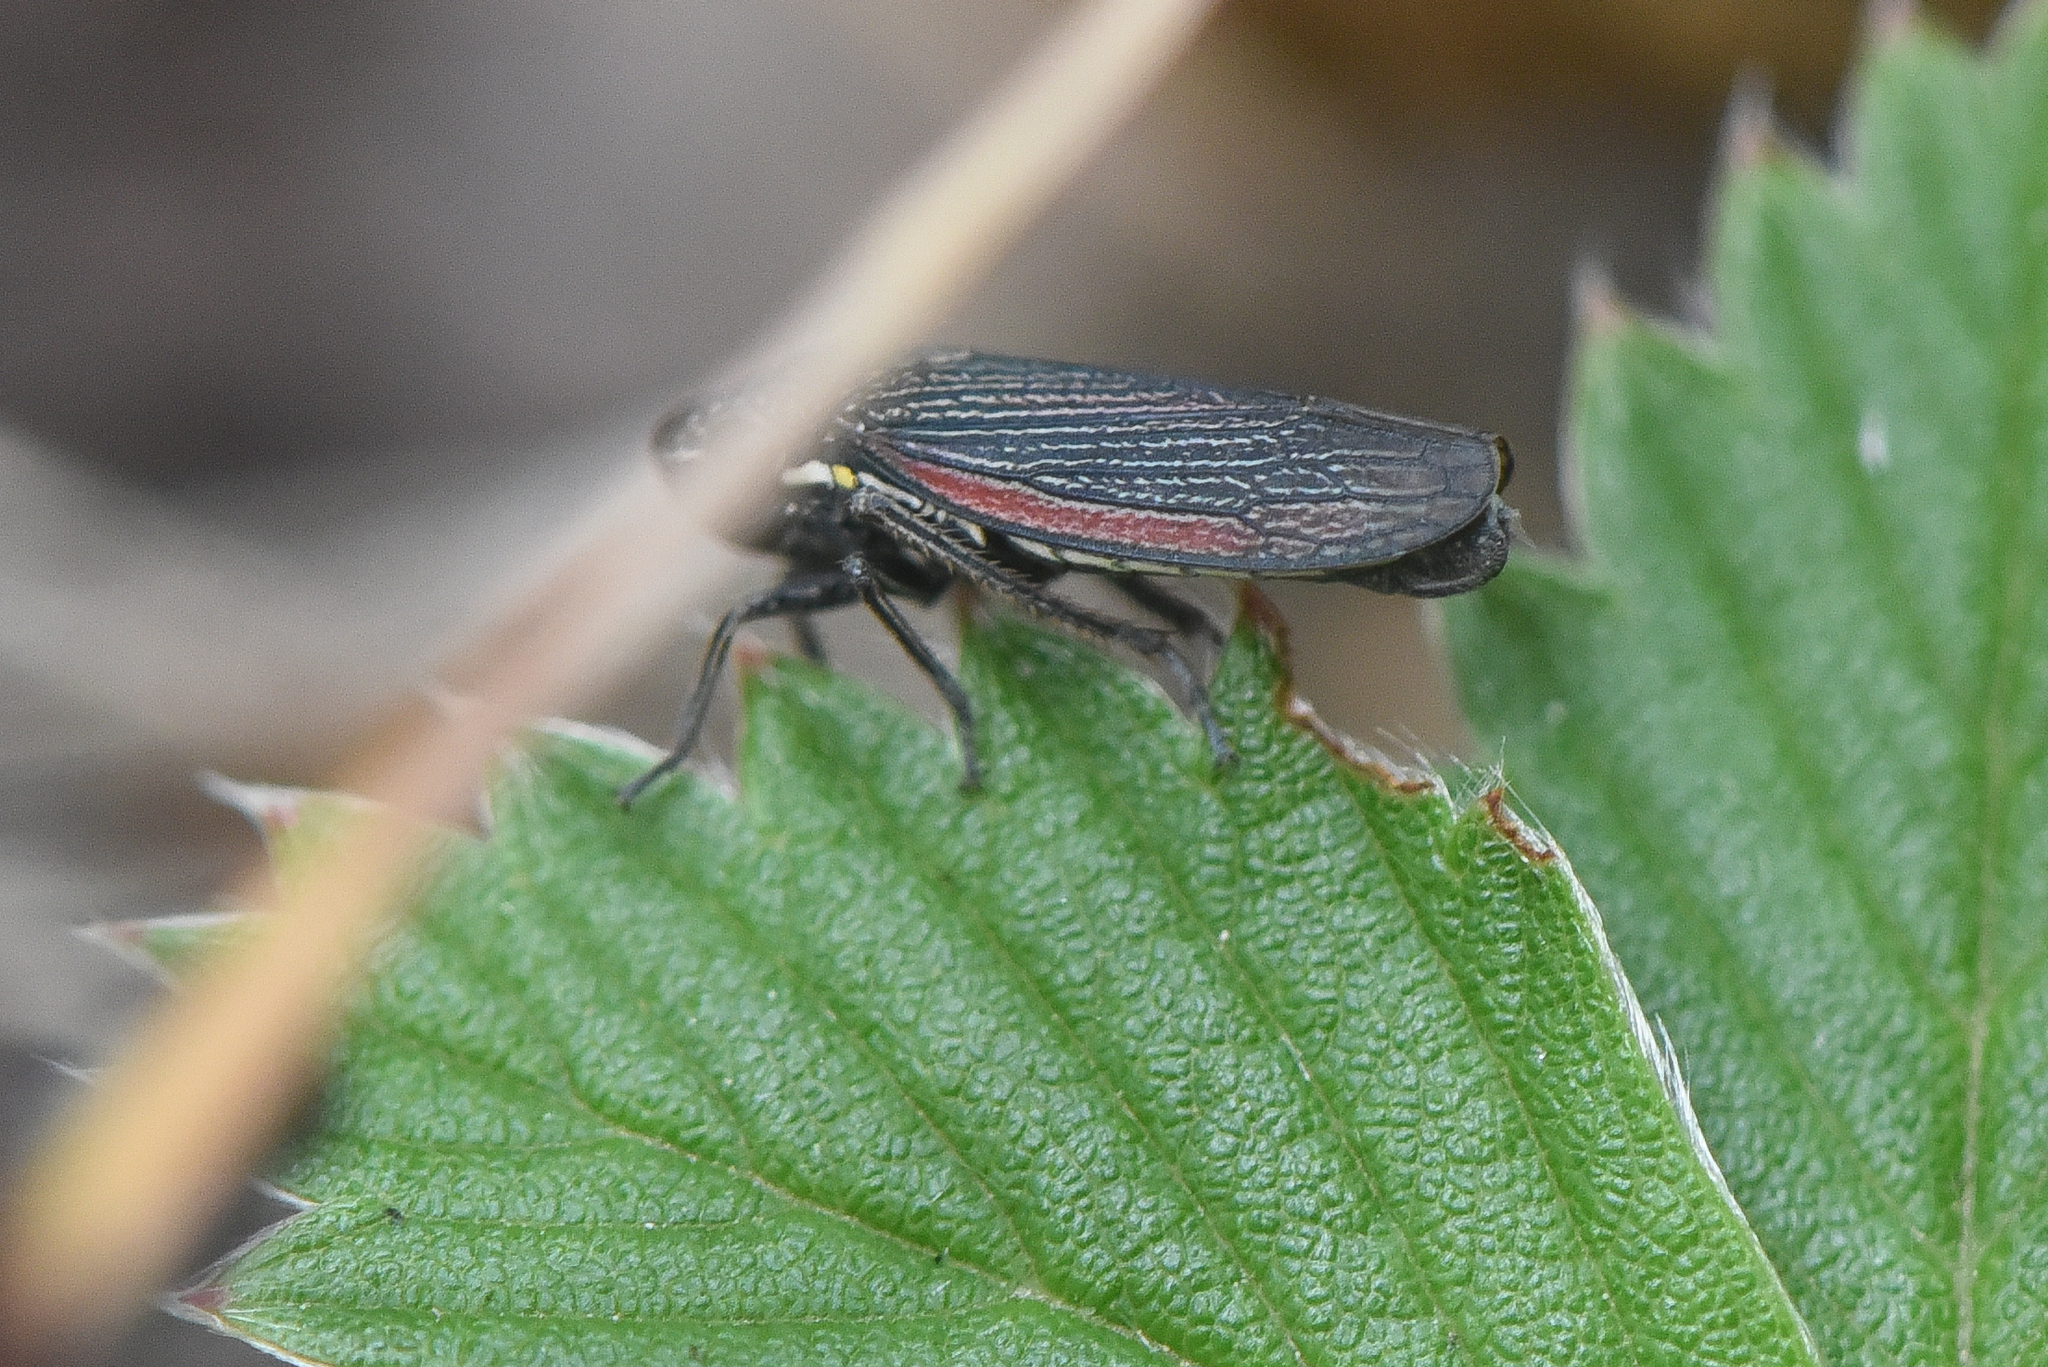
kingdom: Animalia
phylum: Arthropoda
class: Insecta
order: Hemiptera
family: Cicadellidae
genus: Cuerna
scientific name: Cuerna striata
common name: Striped leafhopper
